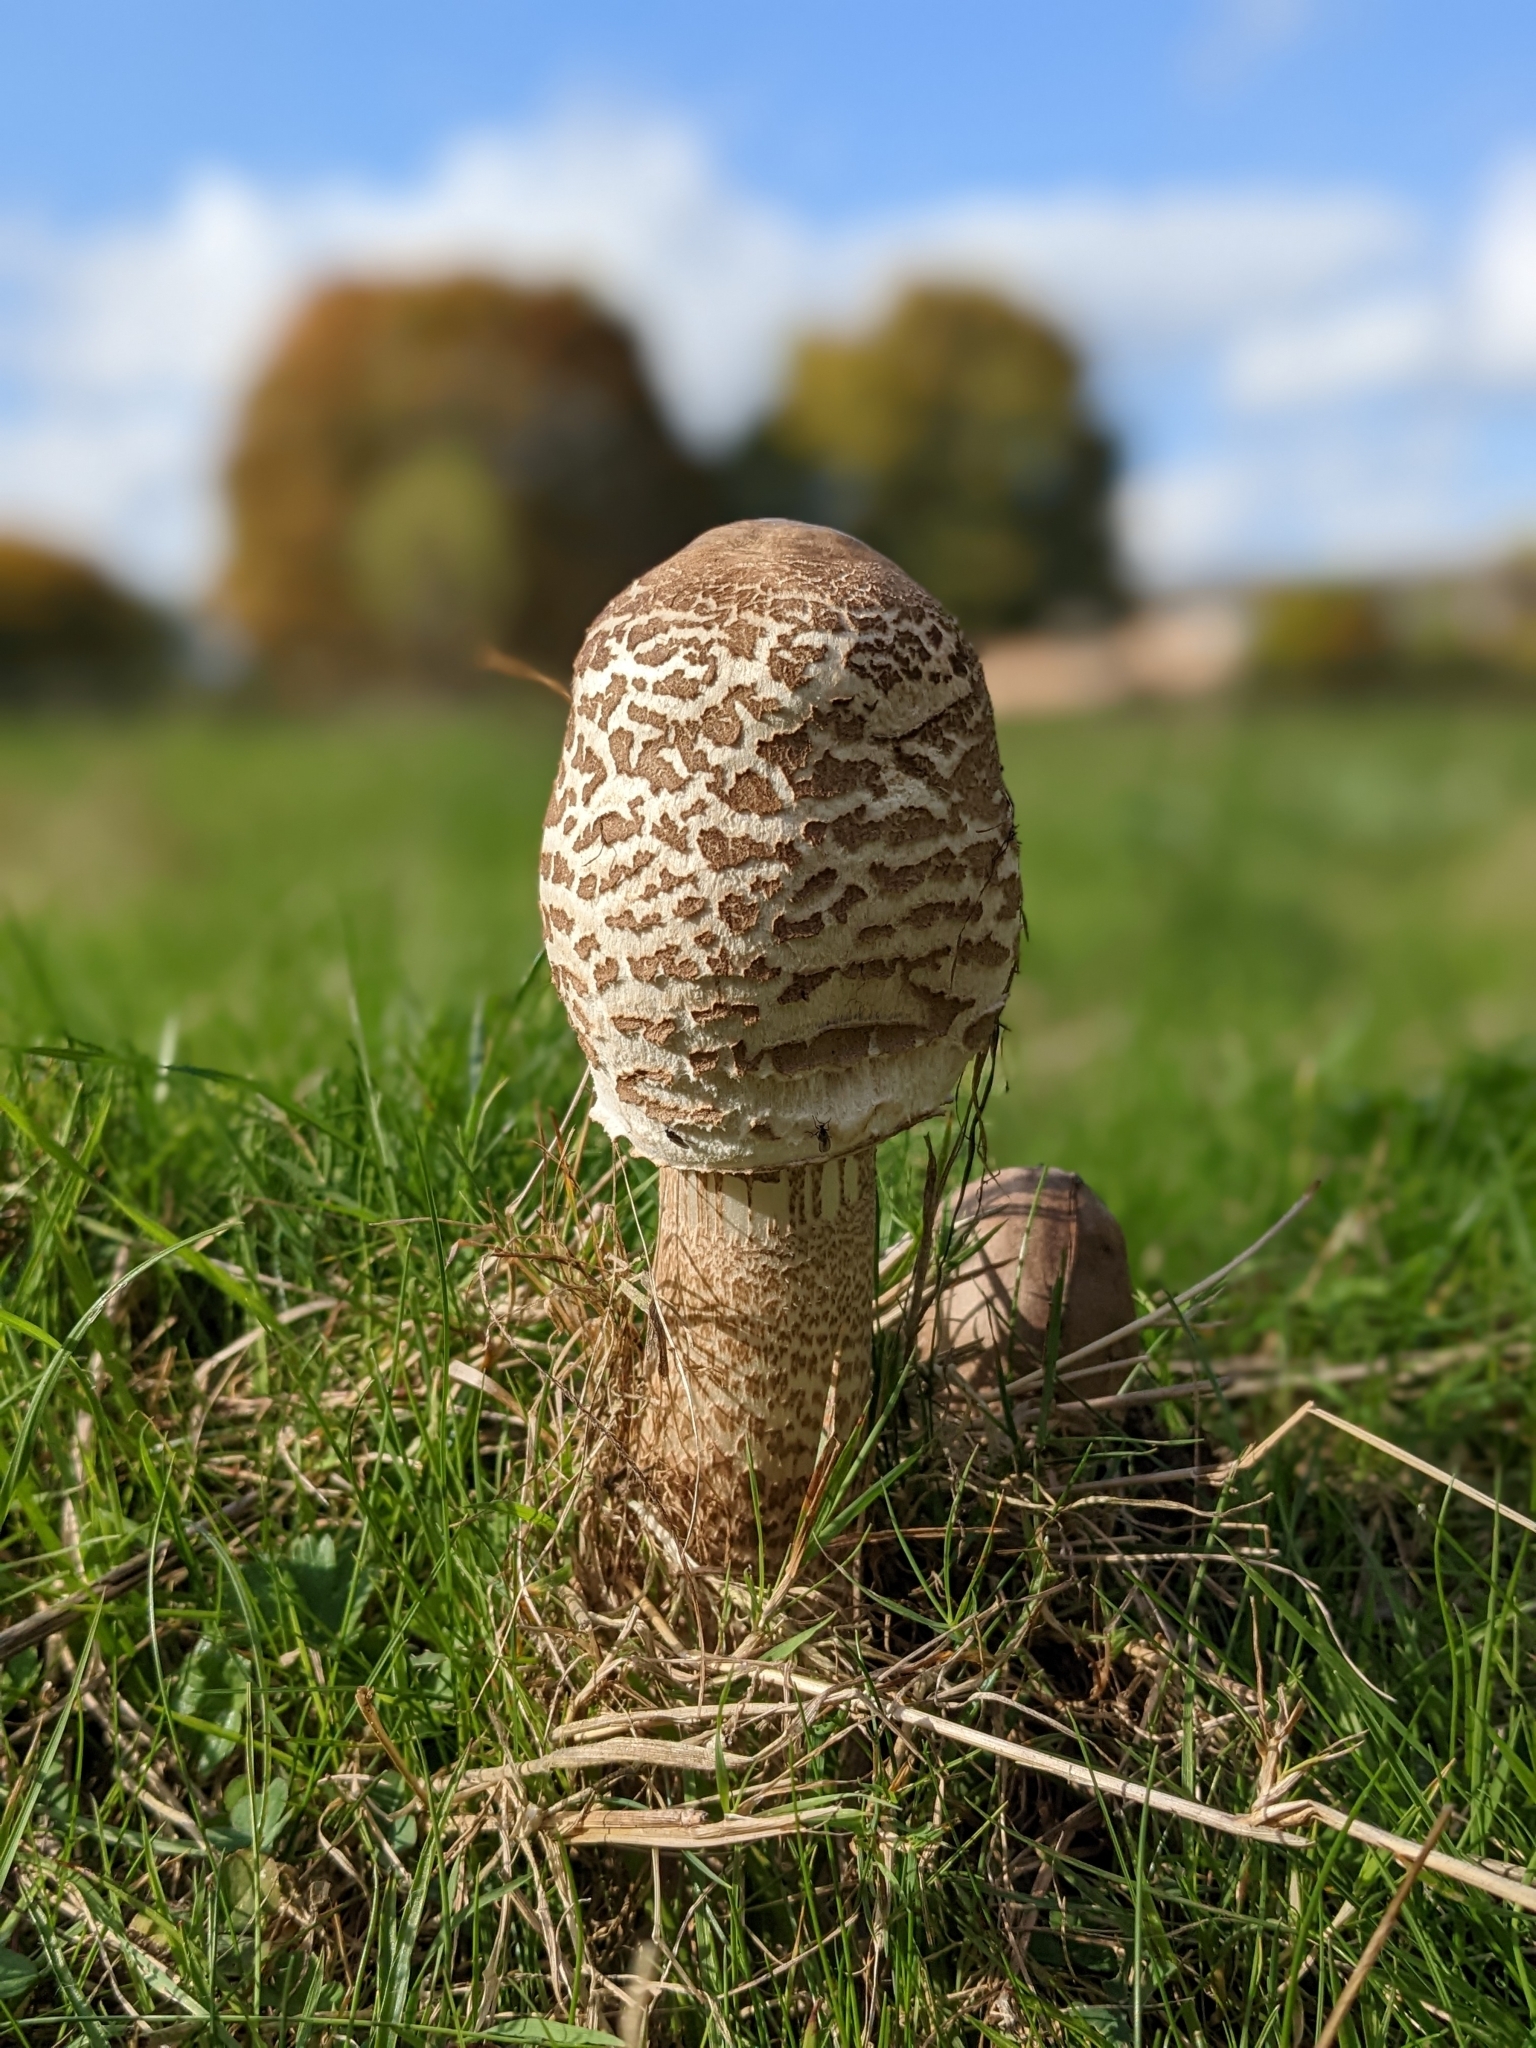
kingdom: Fungi
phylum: Basidiomycota
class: Agaricomycetes
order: Agaricales
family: Agaricaceae
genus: Macrolepiota
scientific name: Macrolepiota procera
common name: Parasol
